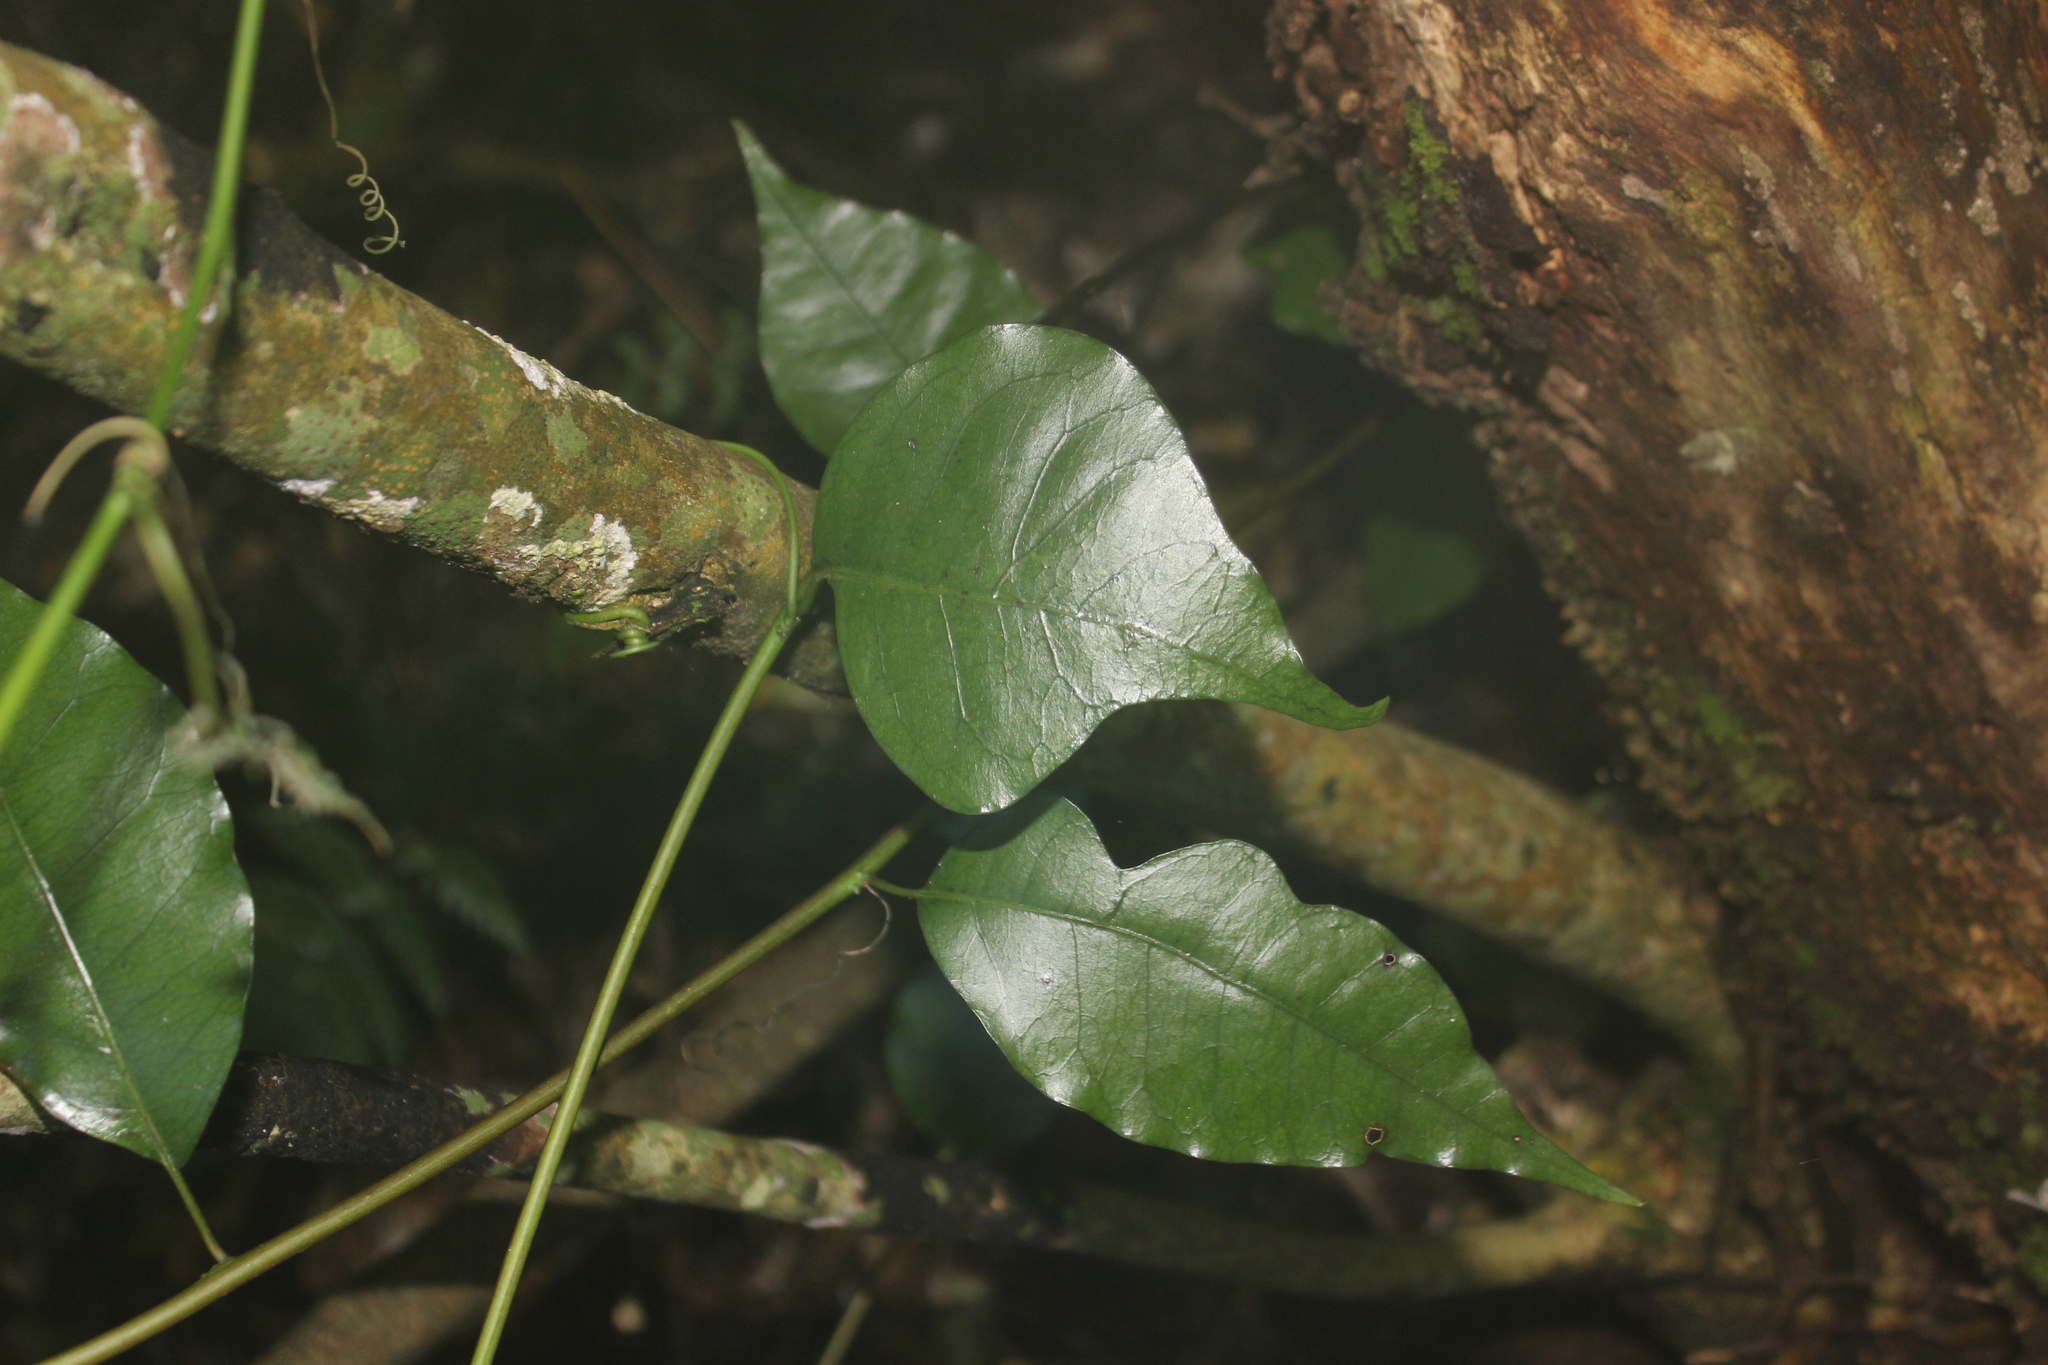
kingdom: Plantae
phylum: Tracheophyta
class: Magnoliopsida
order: Malpighiales
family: Passifloraceae
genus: Passiflora
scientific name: Passiflora tetrandra
